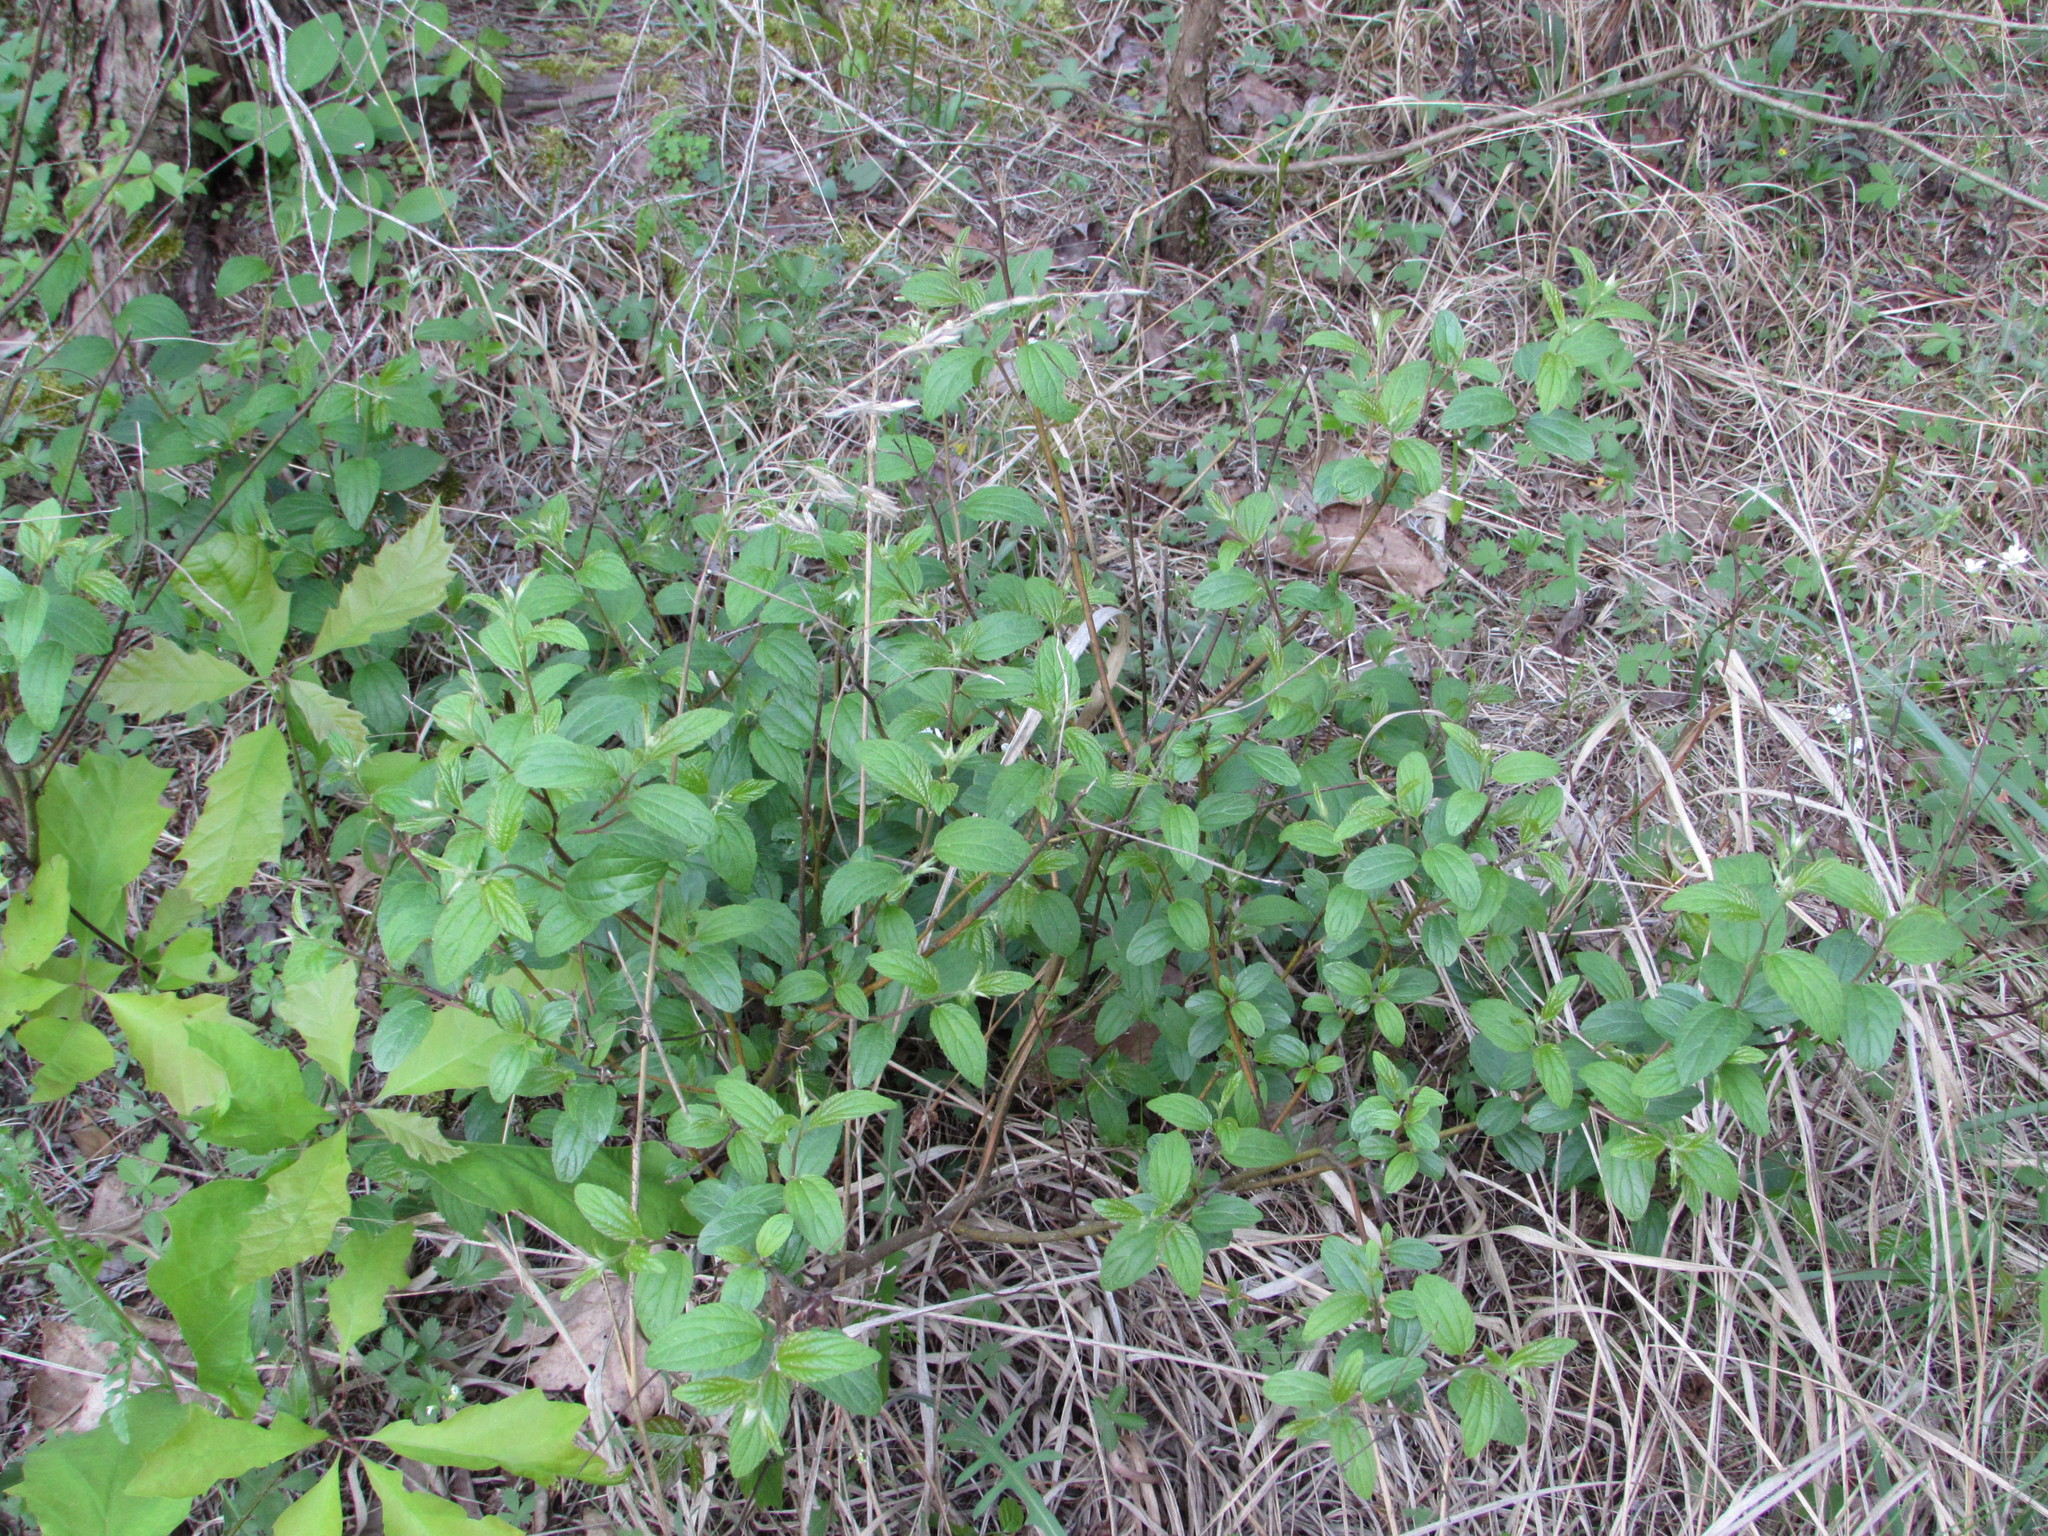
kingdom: Plantae
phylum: Tracheophyta
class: Magnoliopsida
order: Rosales
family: Rhamnaceae
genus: Ceanothus
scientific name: Ceanothus americanus
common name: Redroot
